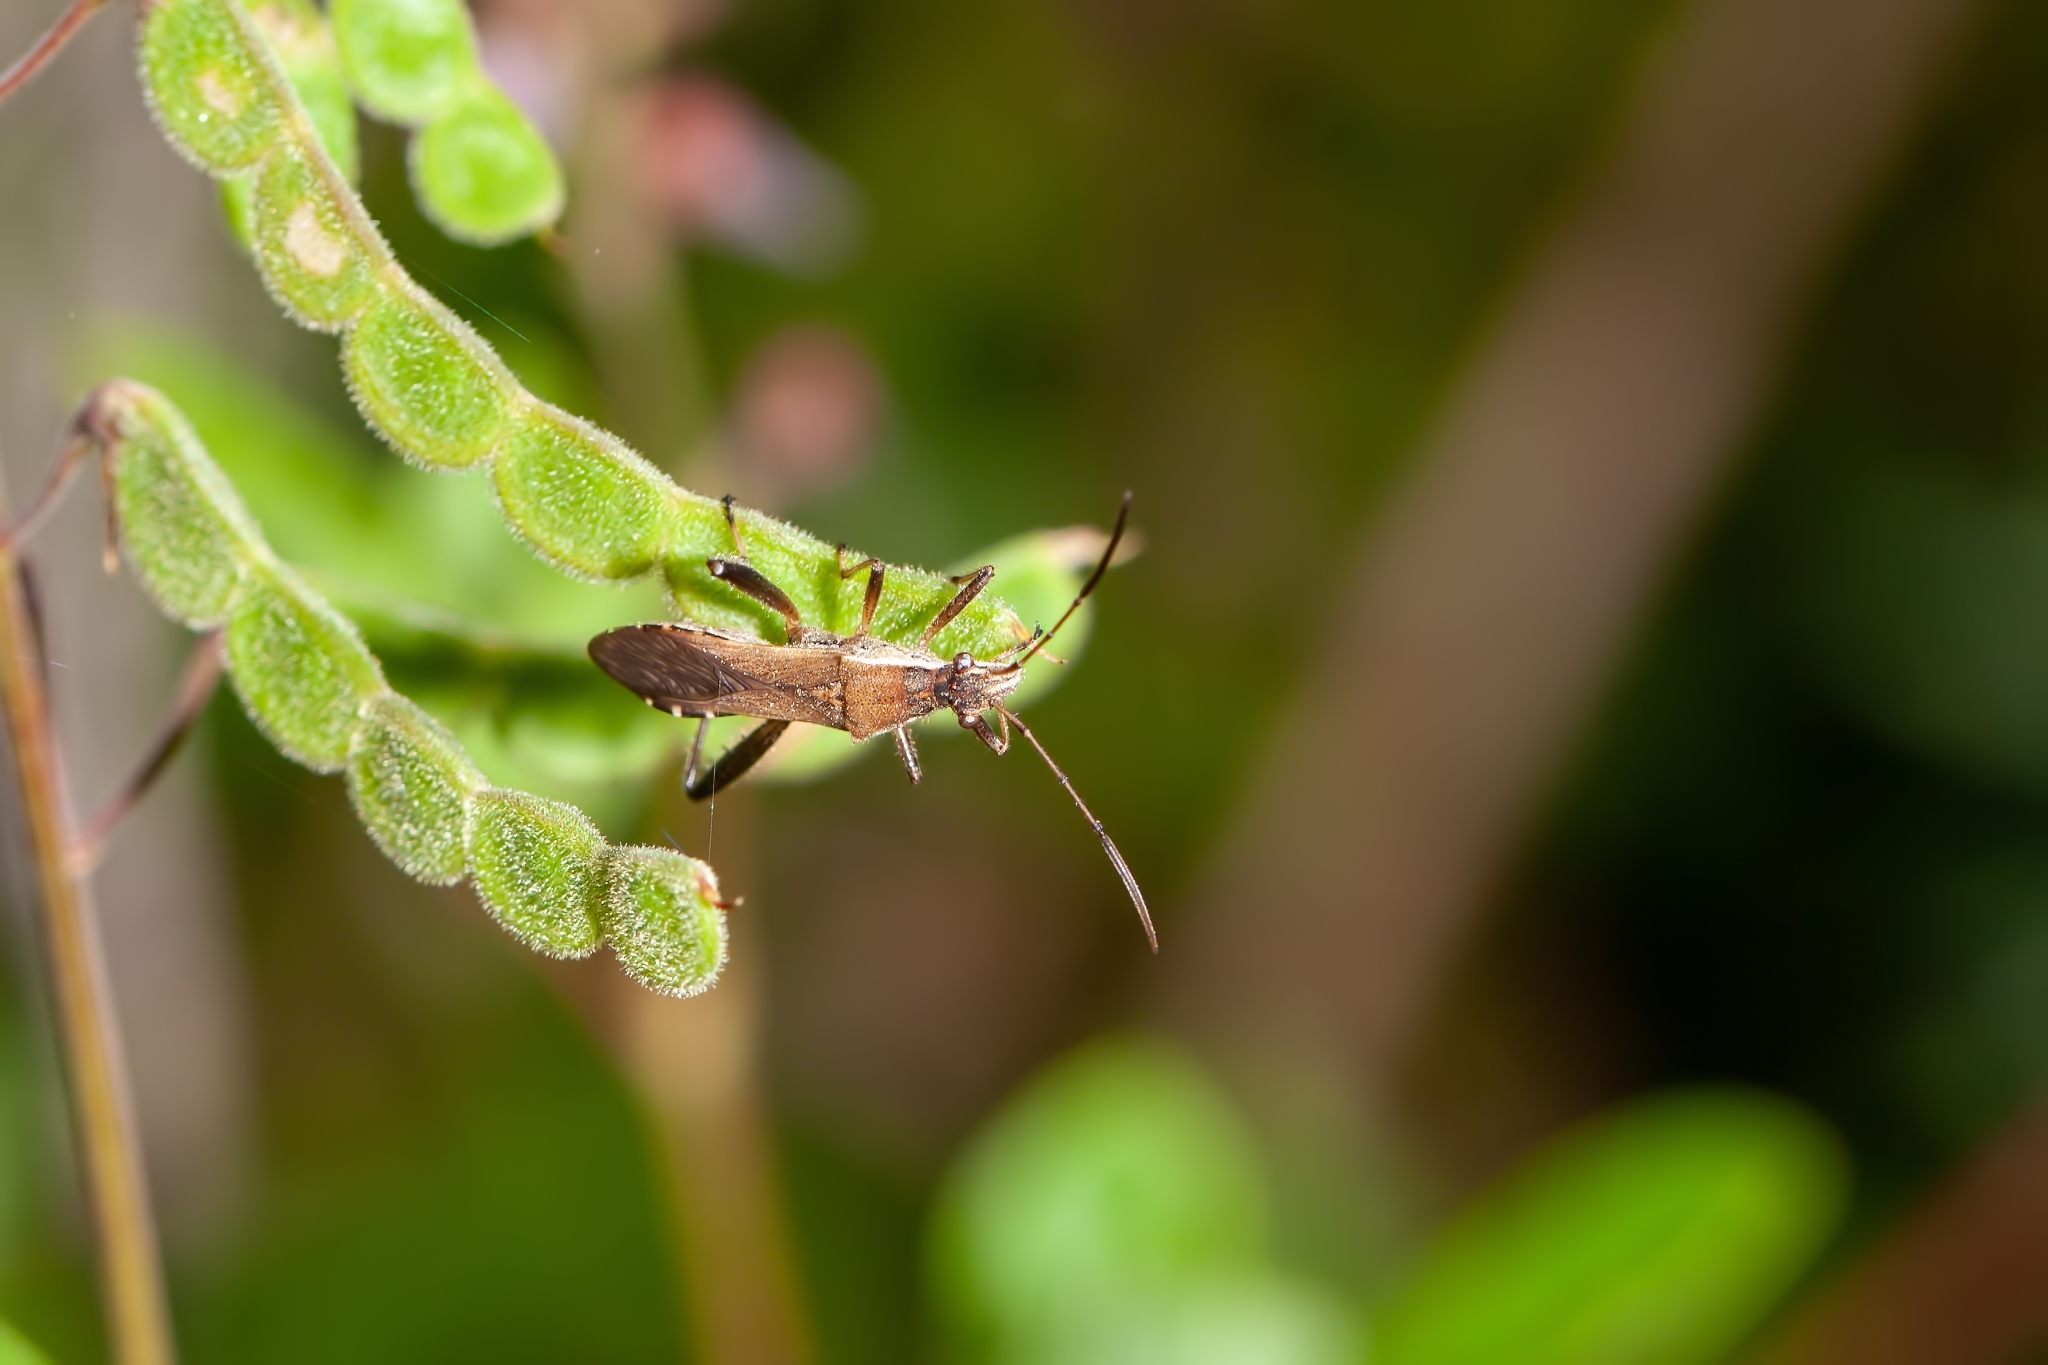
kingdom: Animalia
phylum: Arthropoda
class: Insecta
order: Hemiptera
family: Alydidae
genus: Alydus
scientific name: Alydus pilosulus
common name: Broad-headed bug
